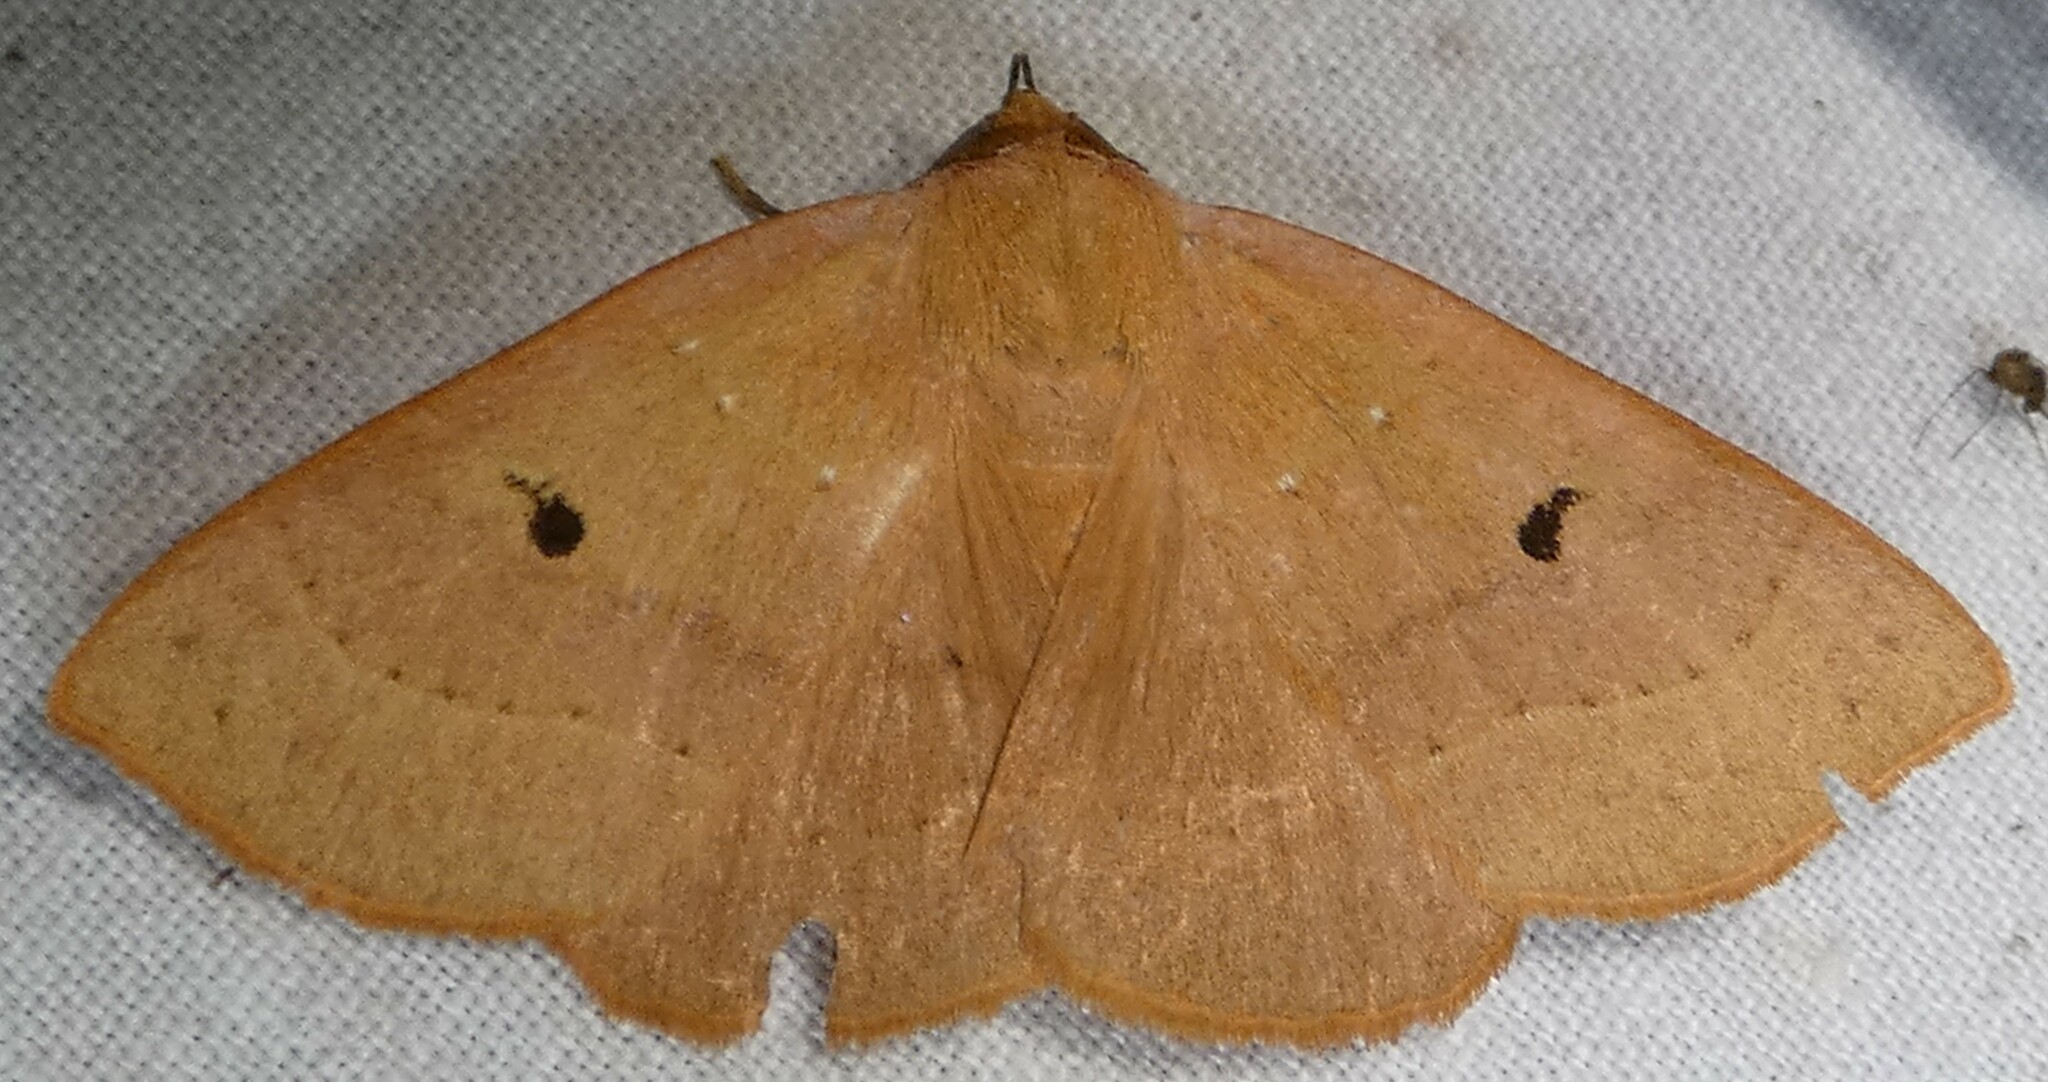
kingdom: Animalia
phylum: Arthropoda
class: Insecta
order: Lepidoptera
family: Erebidae
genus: Panopoda
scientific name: Panopoda repanda
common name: Orange panopoda
